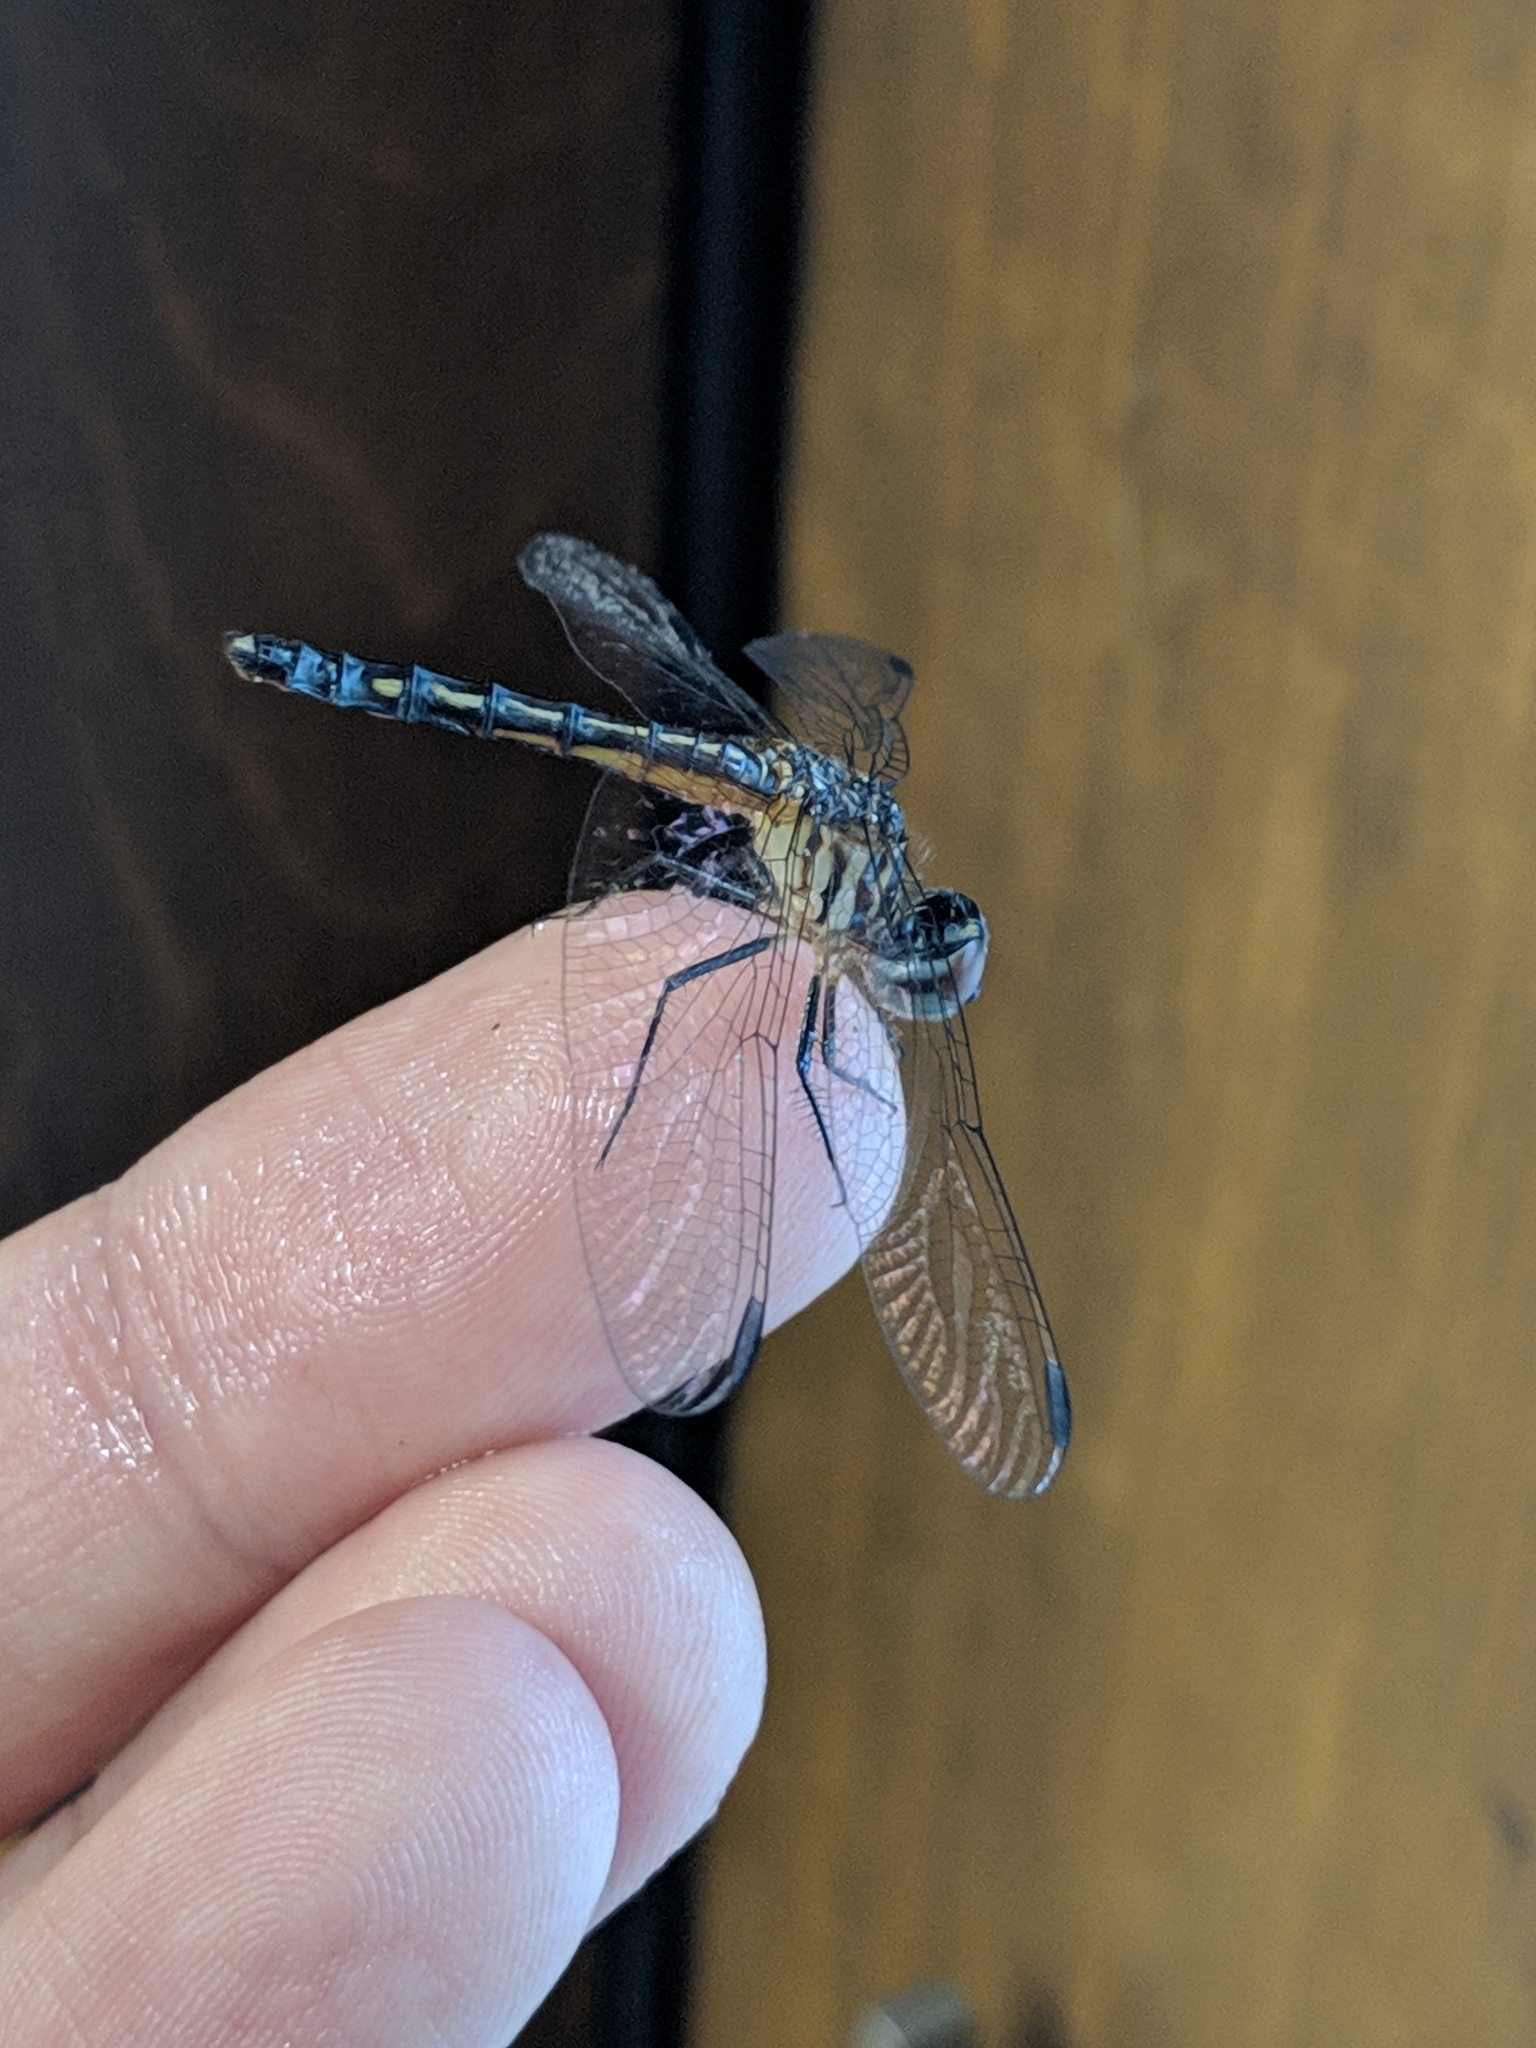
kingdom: Animalia
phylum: Arthropoda
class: Insecta
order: Odonata
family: Libellulidae
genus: Pachydiplax
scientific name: Pachydiplax longipennis
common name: Blue dasher
